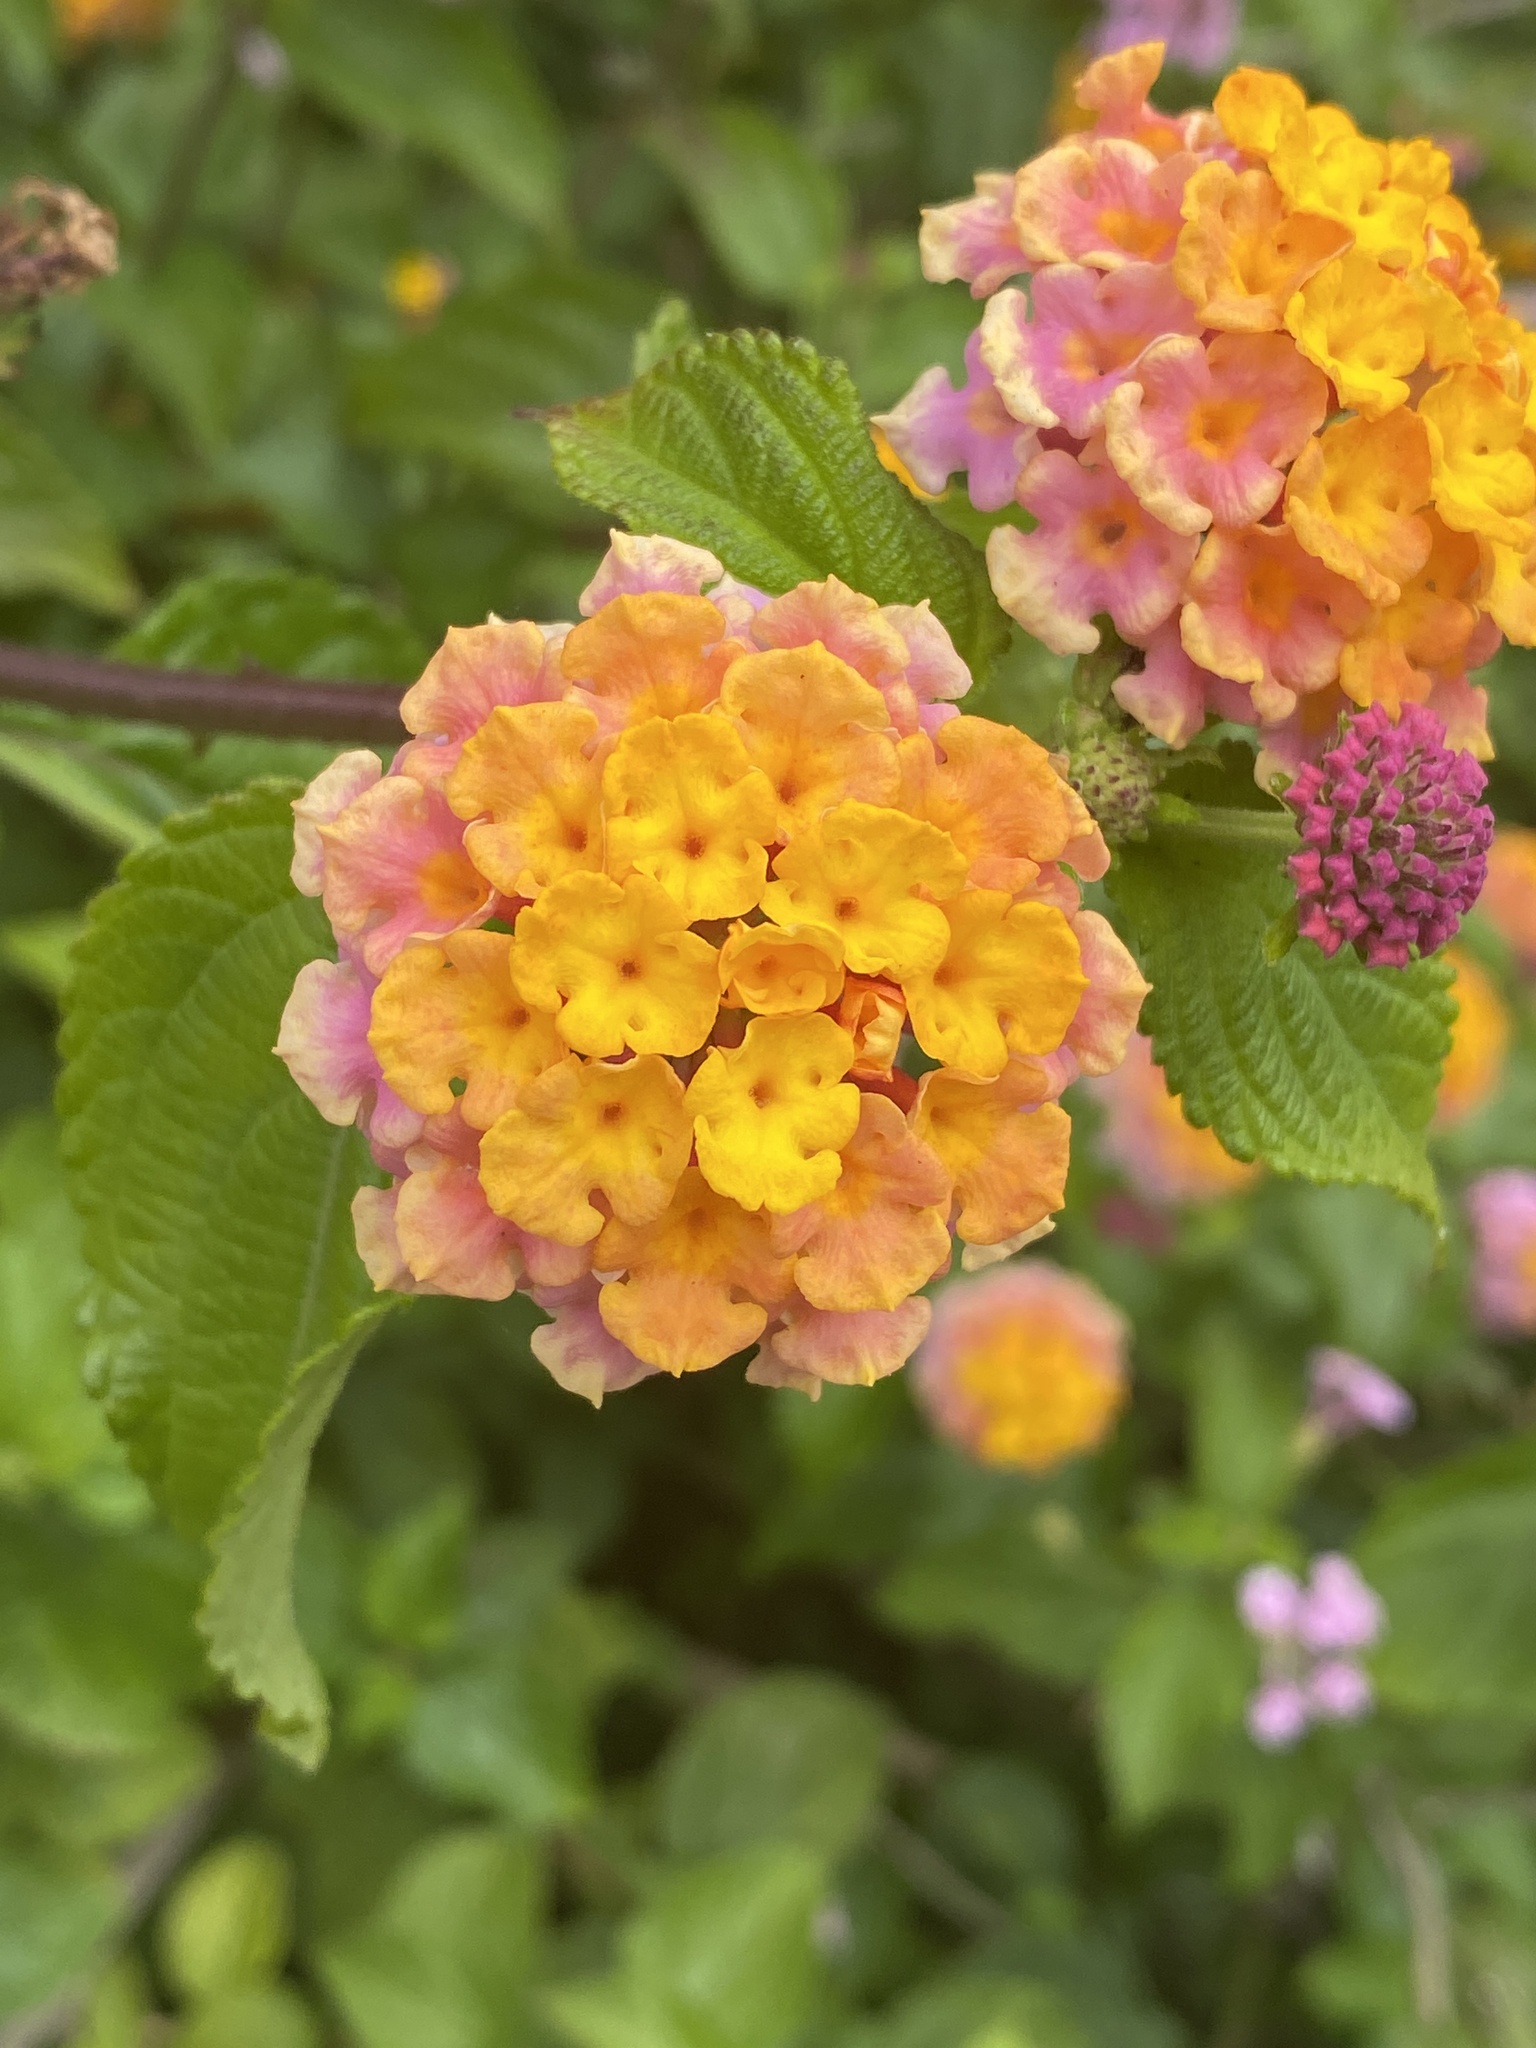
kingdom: Plantae
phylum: Tracheophyta
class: Magnoliopsida
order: Lamiales
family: Verbenaceae
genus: Lantana
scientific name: Lantana camara
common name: Lantana
